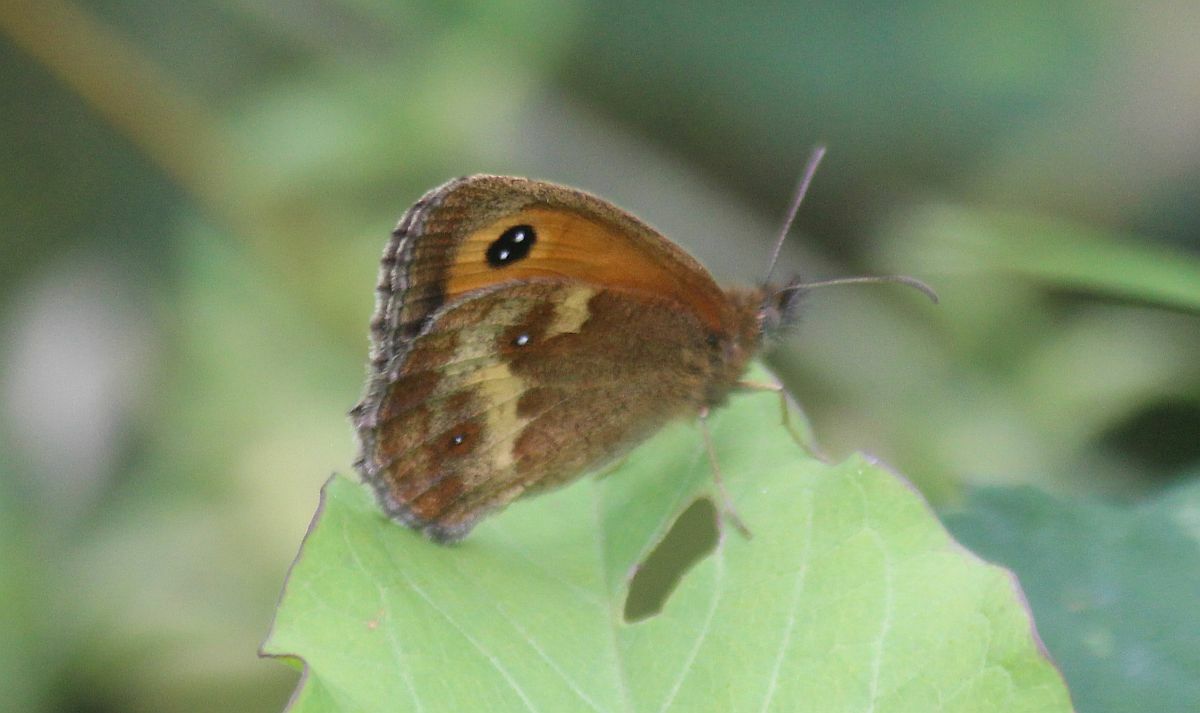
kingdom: Animalia
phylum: Arthropoda
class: Insecta
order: Lepidoptera
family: Nymphalidae
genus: Pyronia
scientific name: Pyronia tithonus
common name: Gatekeeper
